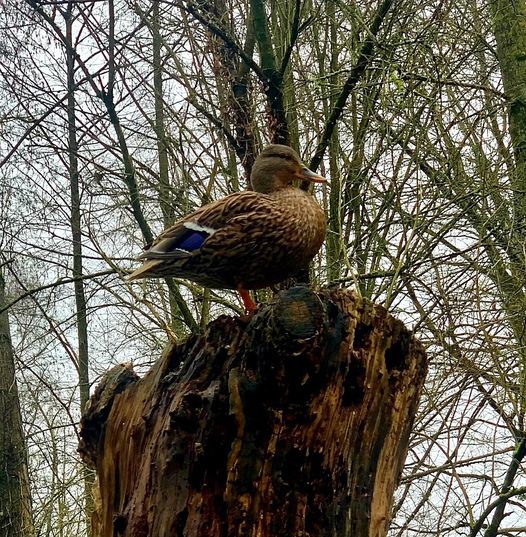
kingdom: Animalia
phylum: Chordata
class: Aves
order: Anseriformes
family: Anatidae
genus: Anas
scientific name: Anas platyrhynchos
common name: Mallard
